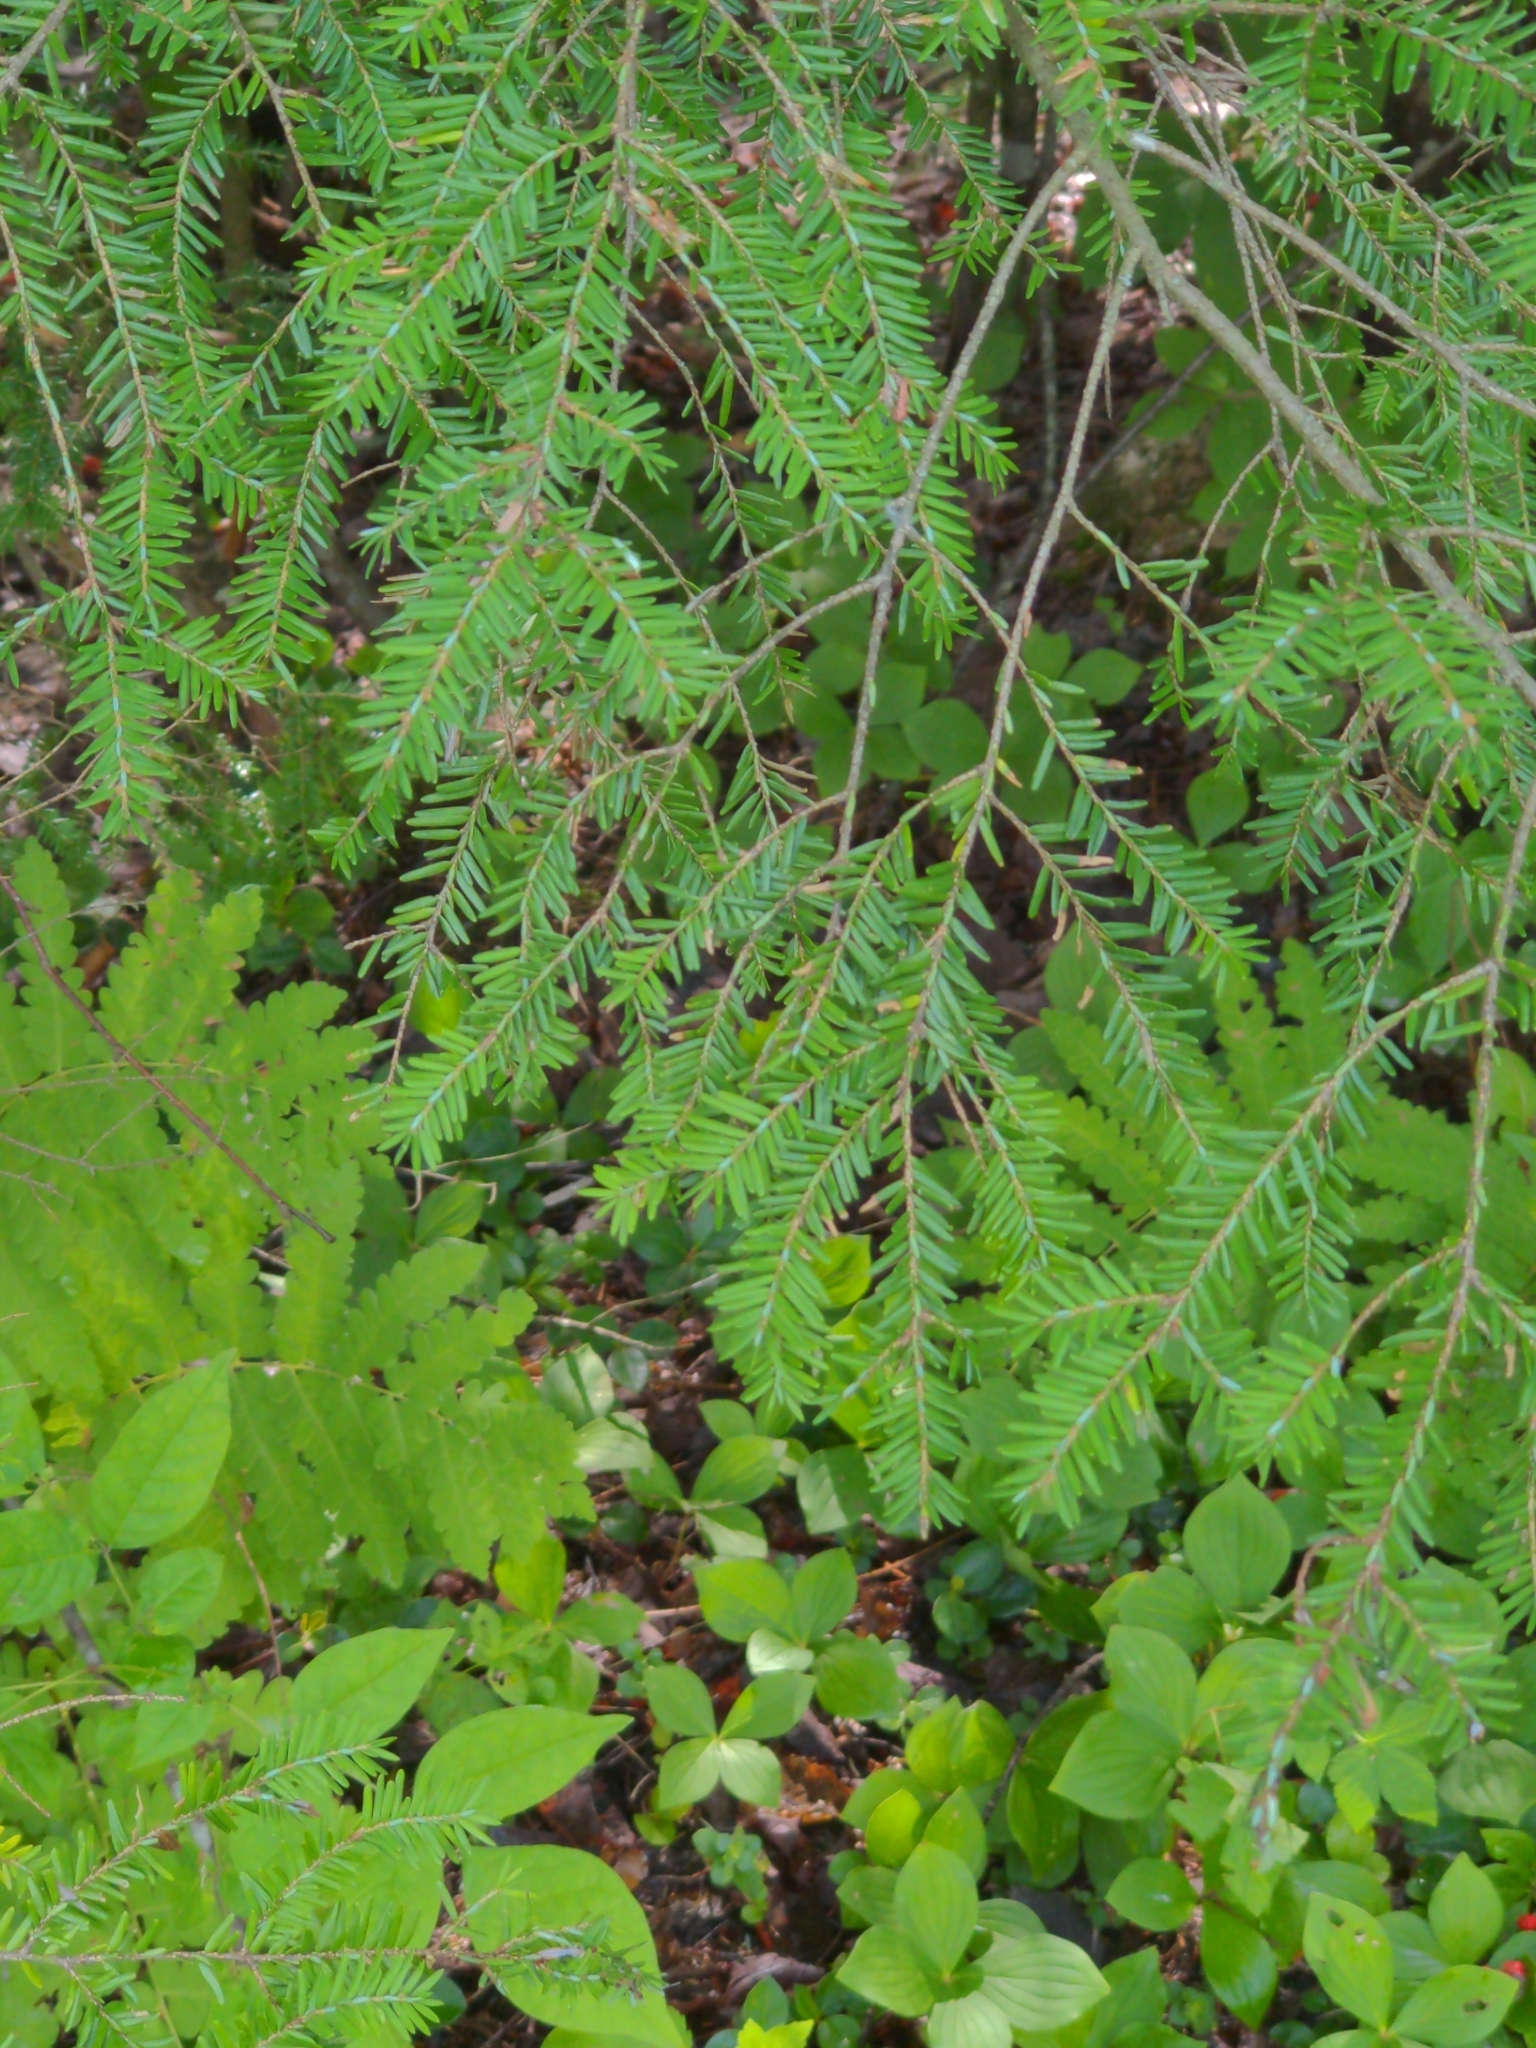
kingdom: Plantae
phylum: Tracheophyta
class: Pinopsida
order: Pinales
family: Pinaceae
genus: Tsuga
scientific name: Tsuga canadensis
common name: Eastern hemlock
